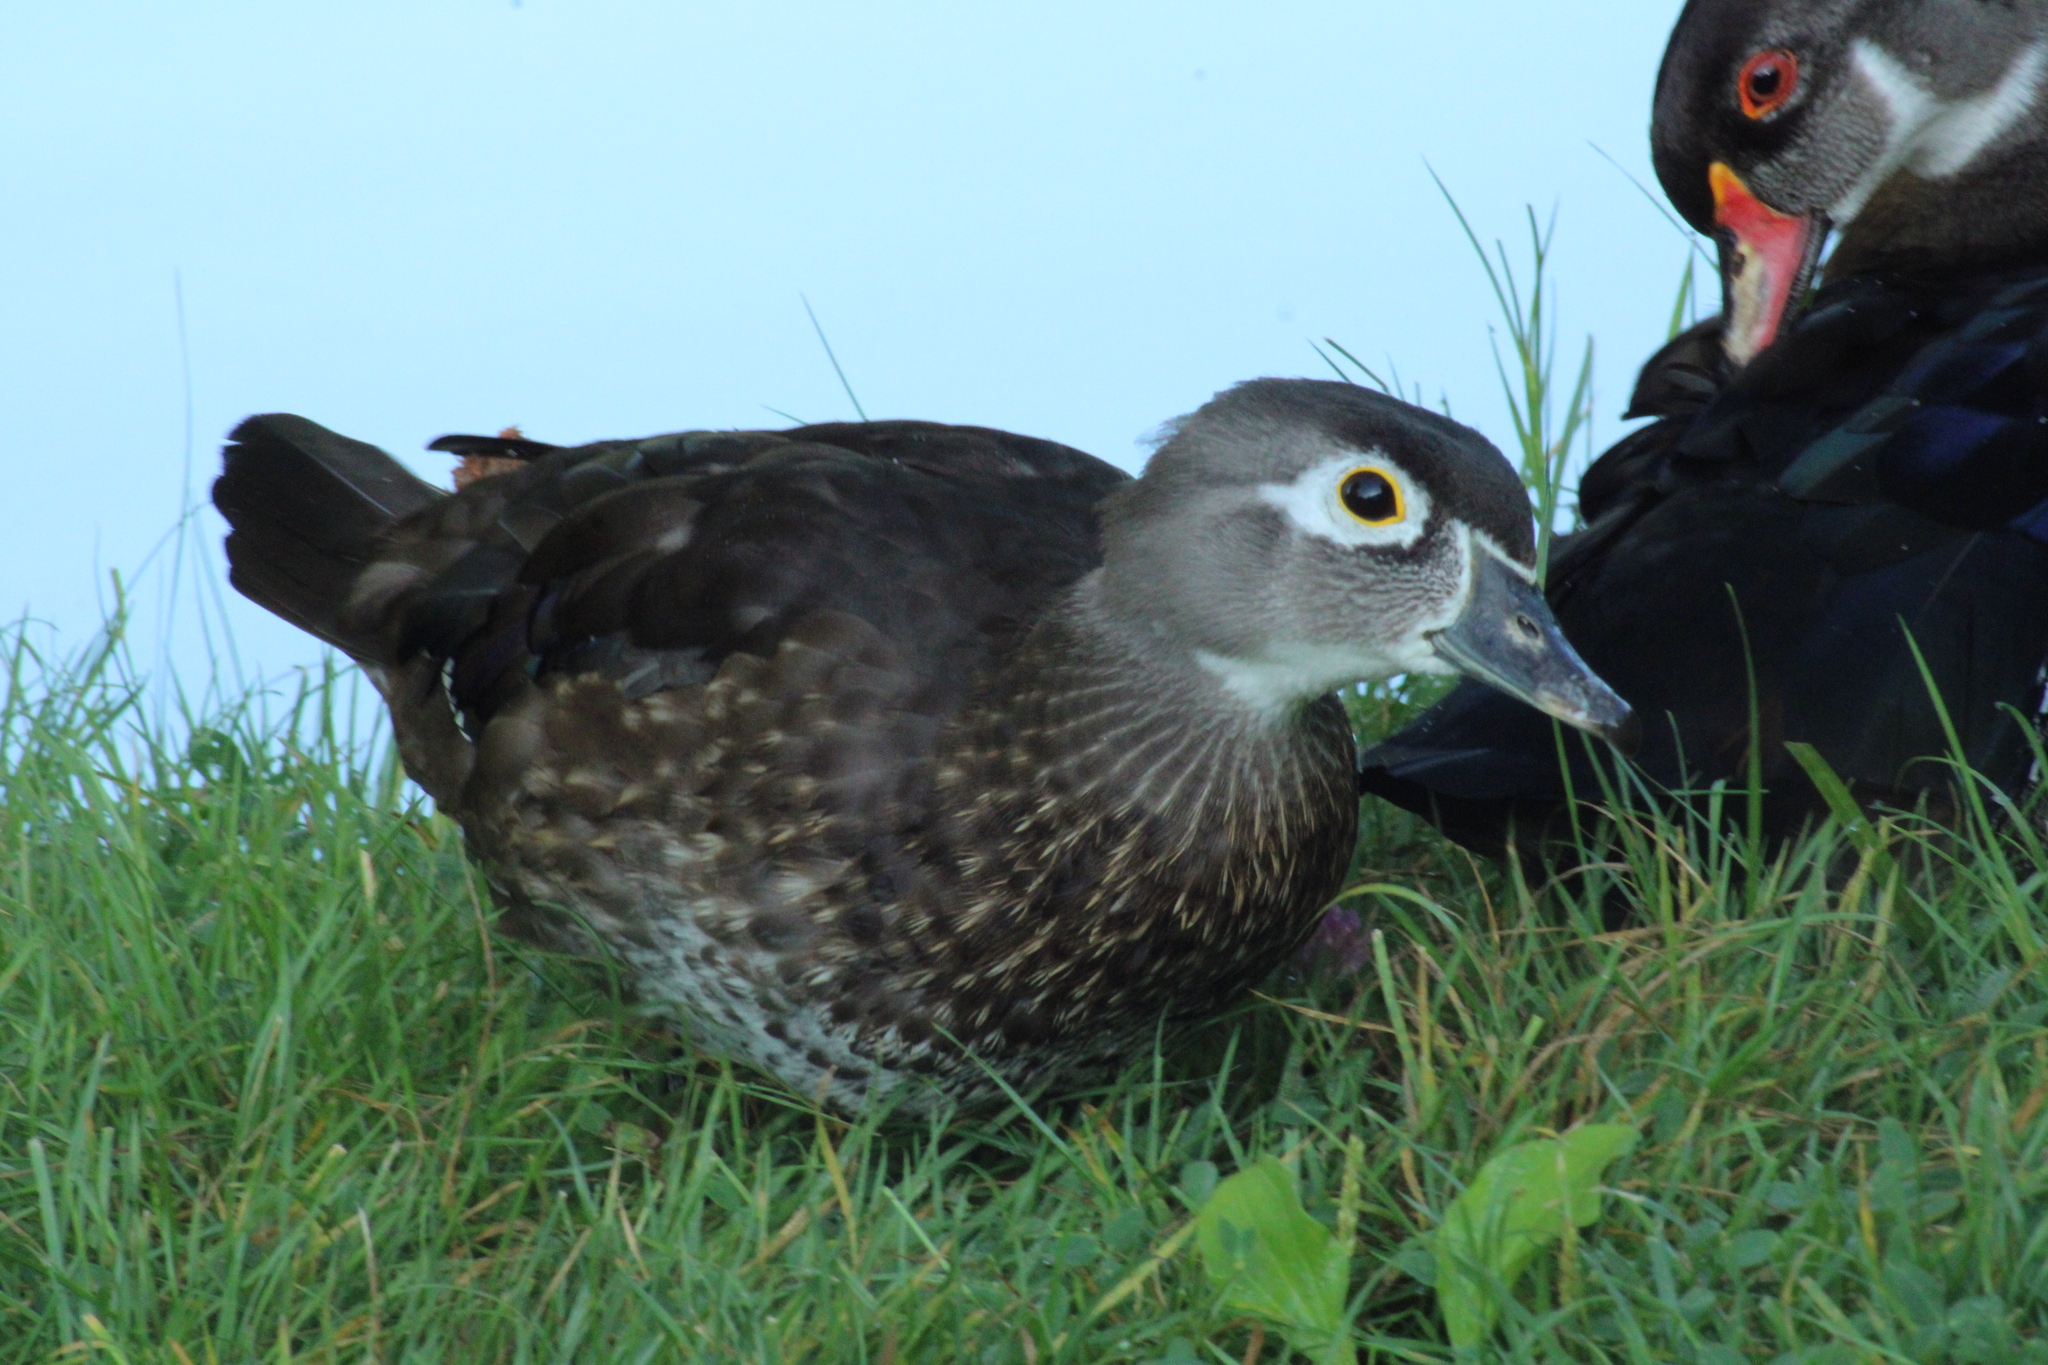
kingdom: Animalia
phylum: Chordata
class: Aves
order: Anseriformes
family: Anatidae
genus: Aix
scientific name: Aix sponsa
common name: Wood duck
